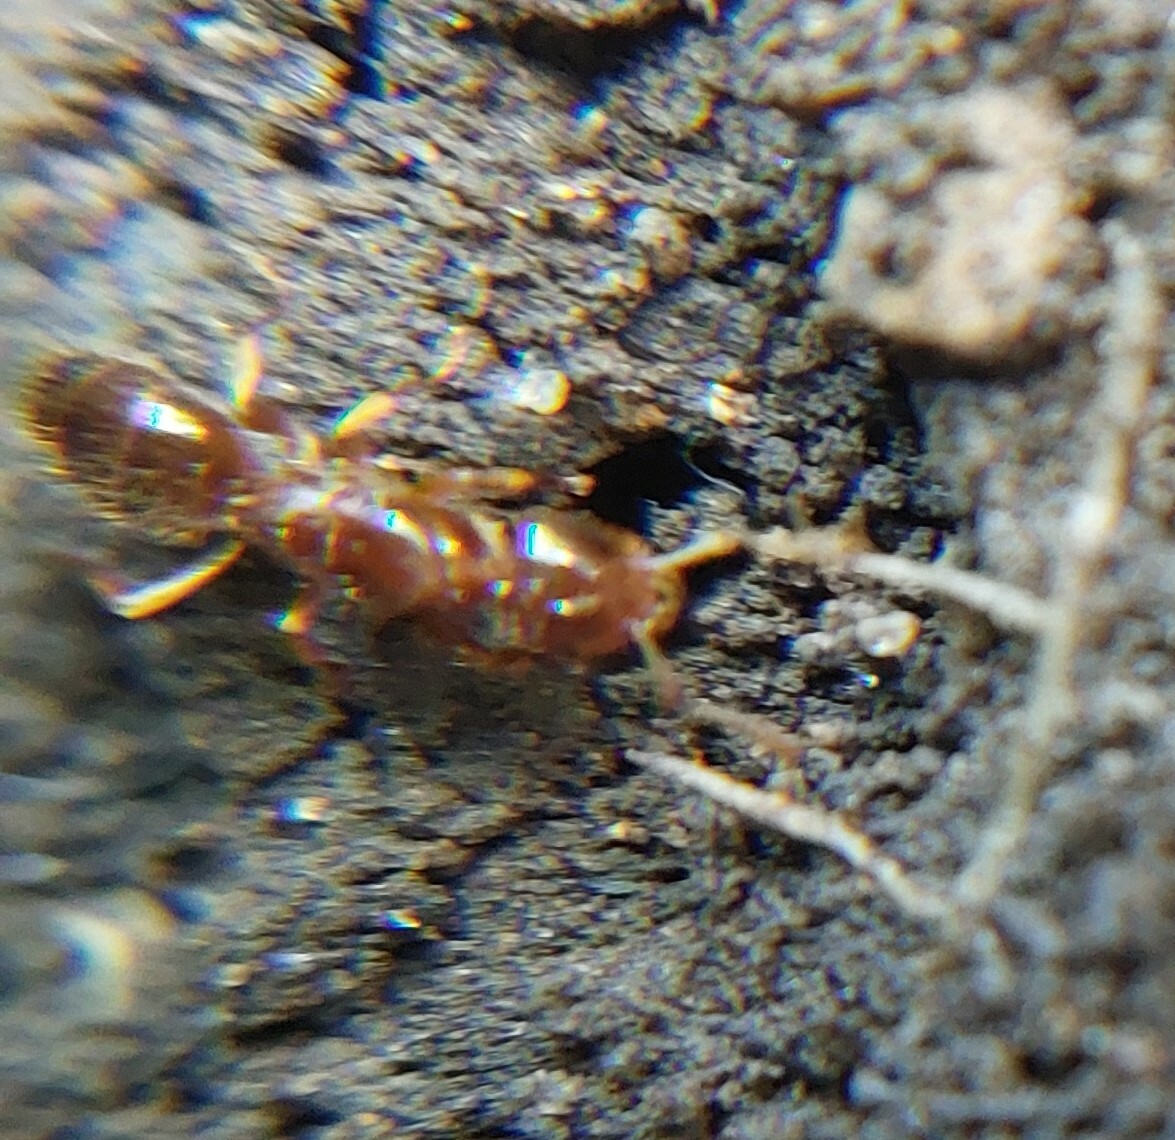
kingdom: Animalia
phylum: Arthropoda
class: Insecta
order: Hymenoptera
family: Formicidae
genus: Lasius
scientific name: Lasius claviger
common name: Common citronella ant
